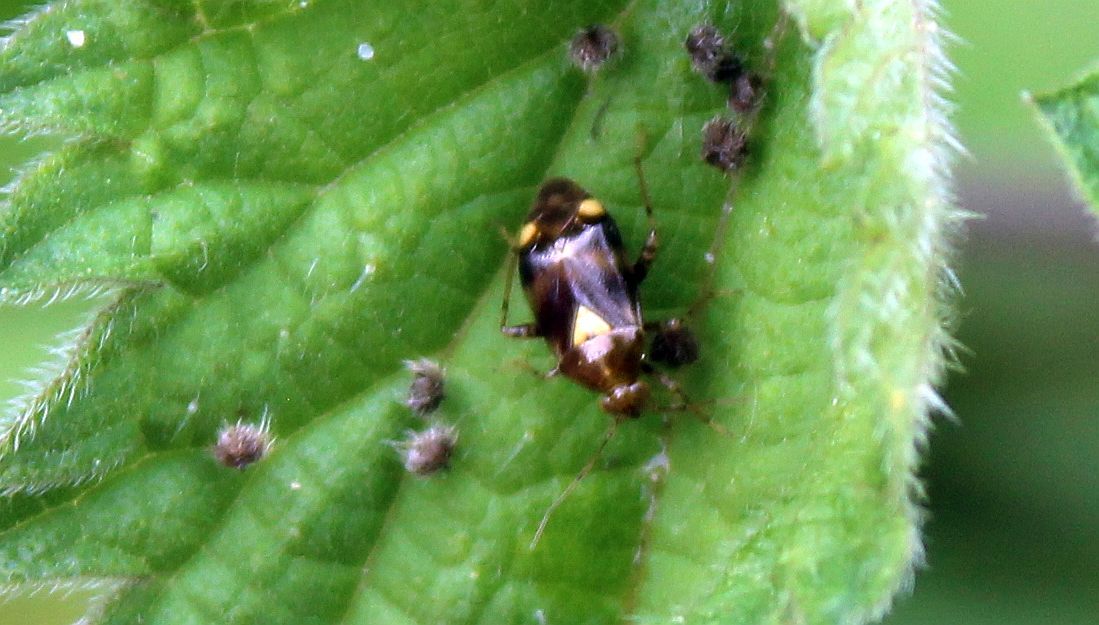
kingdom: Animalia
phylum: Arthropoda
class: Insecta
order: Hemiptera
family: Miridae
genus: Liocoris
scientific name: Liocoris tripustulatus
